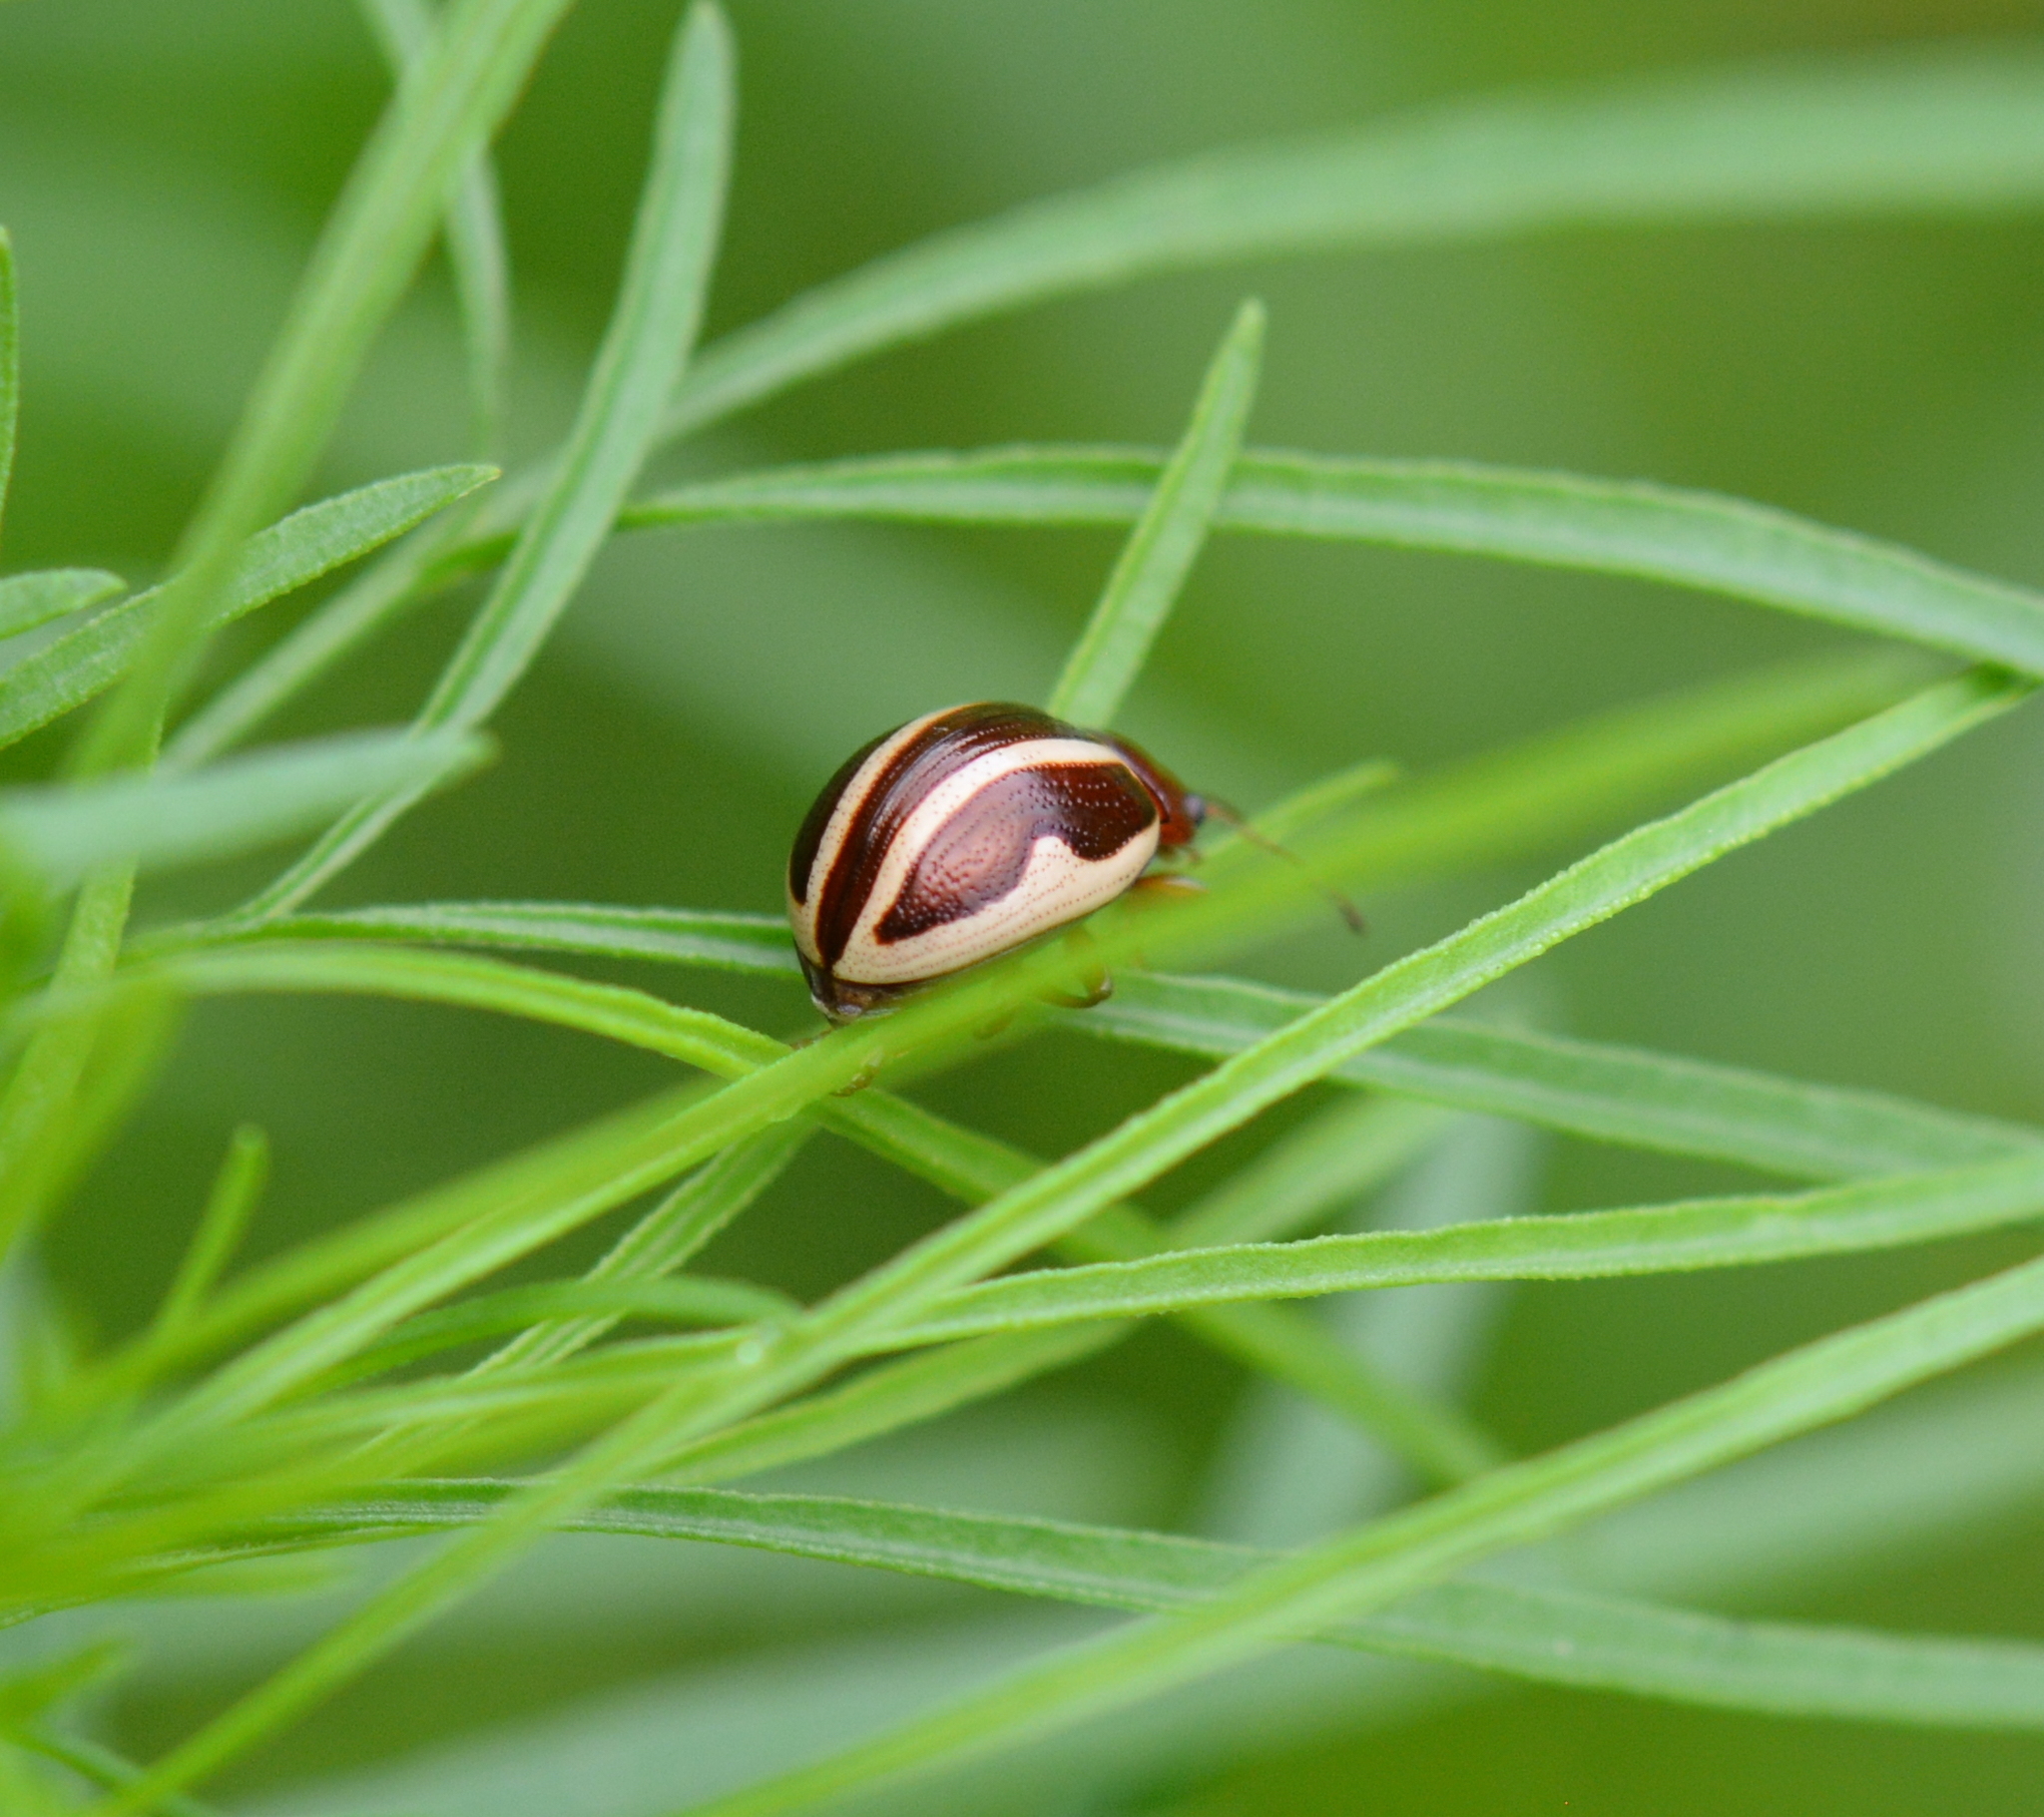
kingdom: Animalia
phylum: Arthropoda
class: Insecta
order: Coleoptera
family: Chrysomelidae
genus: Calligrapha
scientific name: Calligrapha bidenticola
